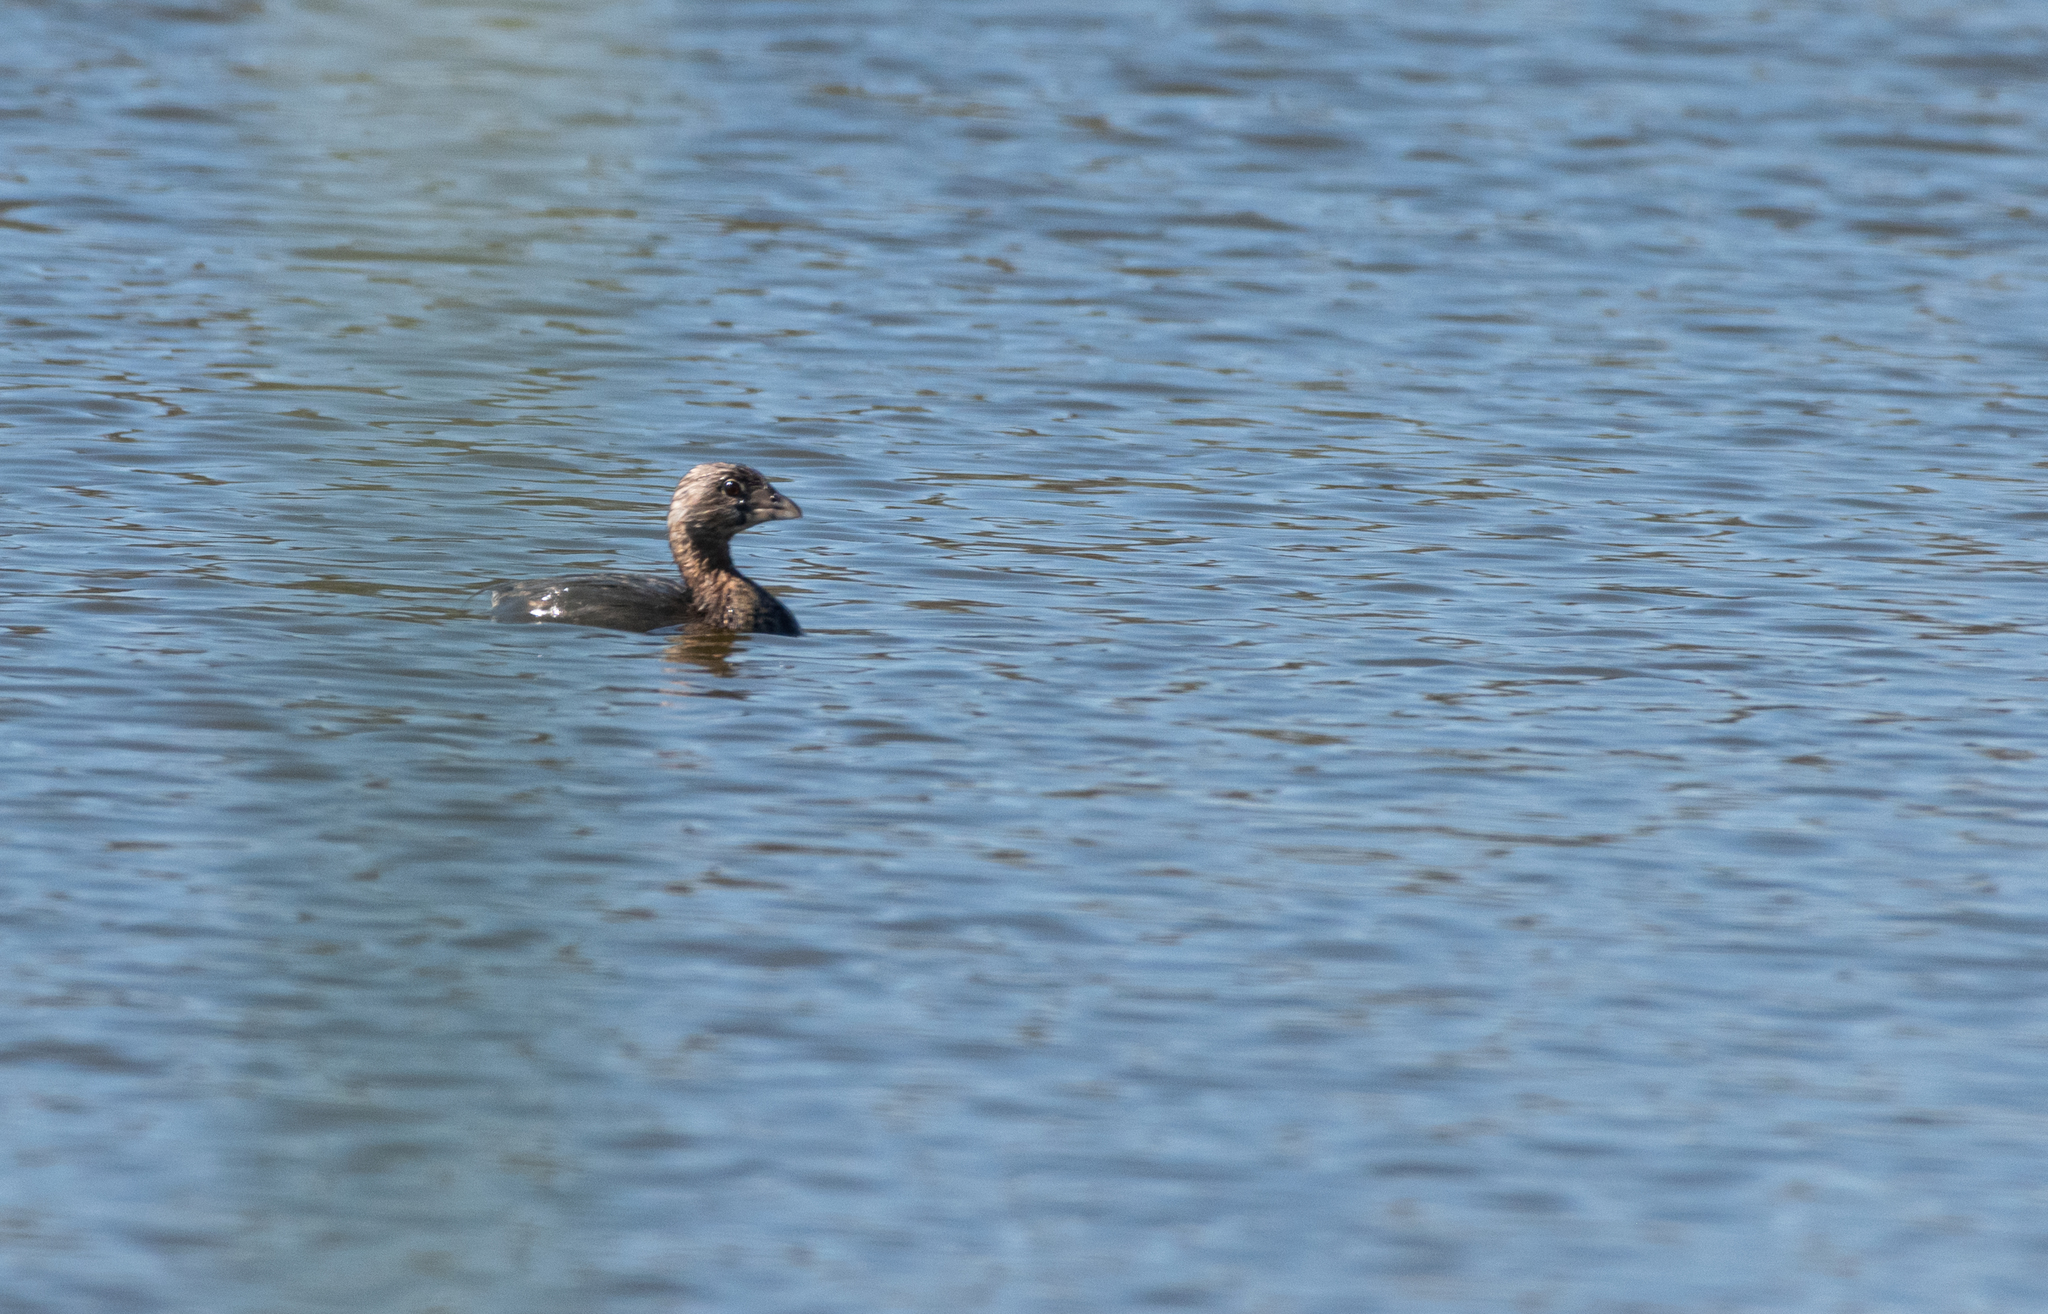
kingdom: Animalia
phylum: Chordata
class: Aves
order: Podicipediformes
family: Podicipedidae
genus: Podilymbus
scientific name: Podilymbus podiceps
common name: Pied-billed grebe
